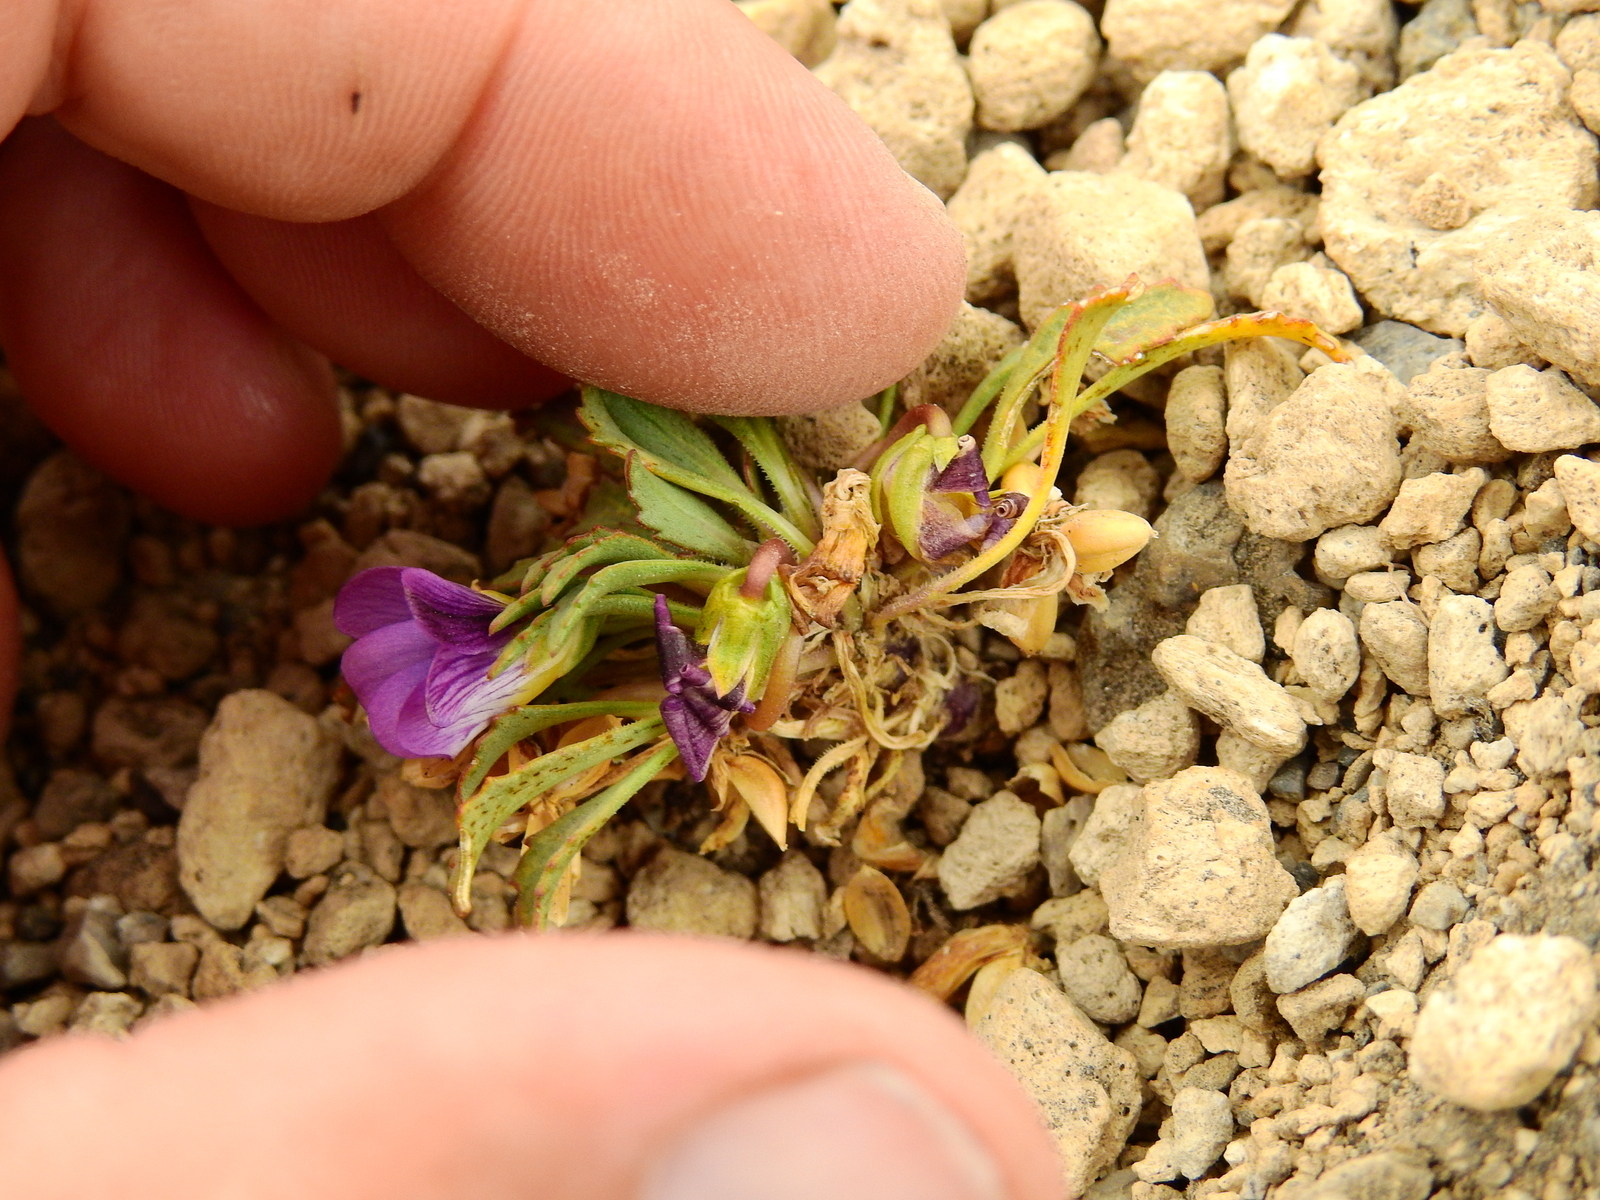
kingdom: Plantae
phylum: Tracheophyta
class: Magnoliopsida
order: Malpighiales
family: Violaceae
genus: Viola
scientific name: Viola cheeseana
